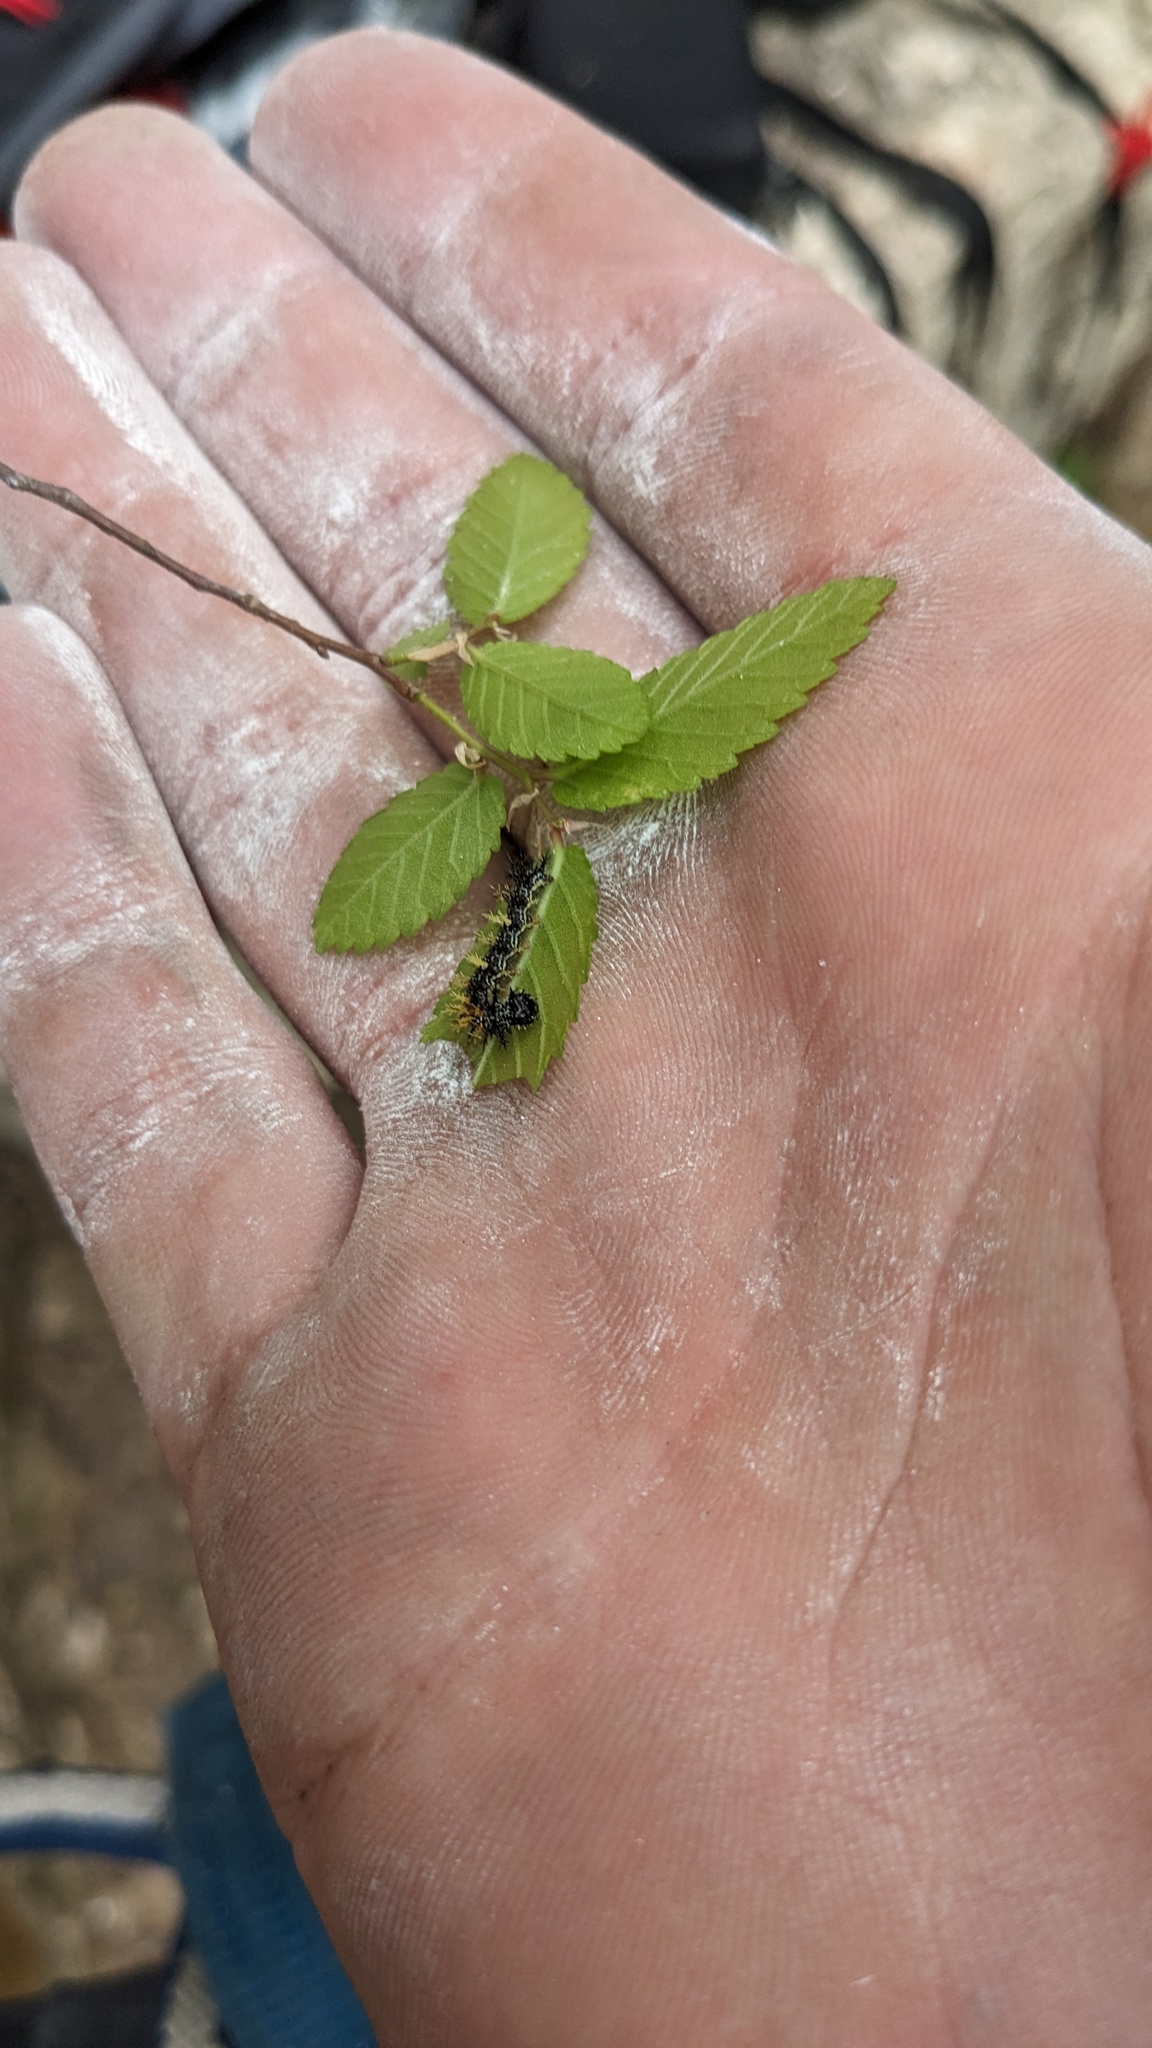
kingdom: Animalia
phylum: Arthropoda
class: Insecta
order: Lepidoptera
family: Nymphalidae
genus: Polygonia
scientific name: Polygonia interrogationis
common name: Question mark
